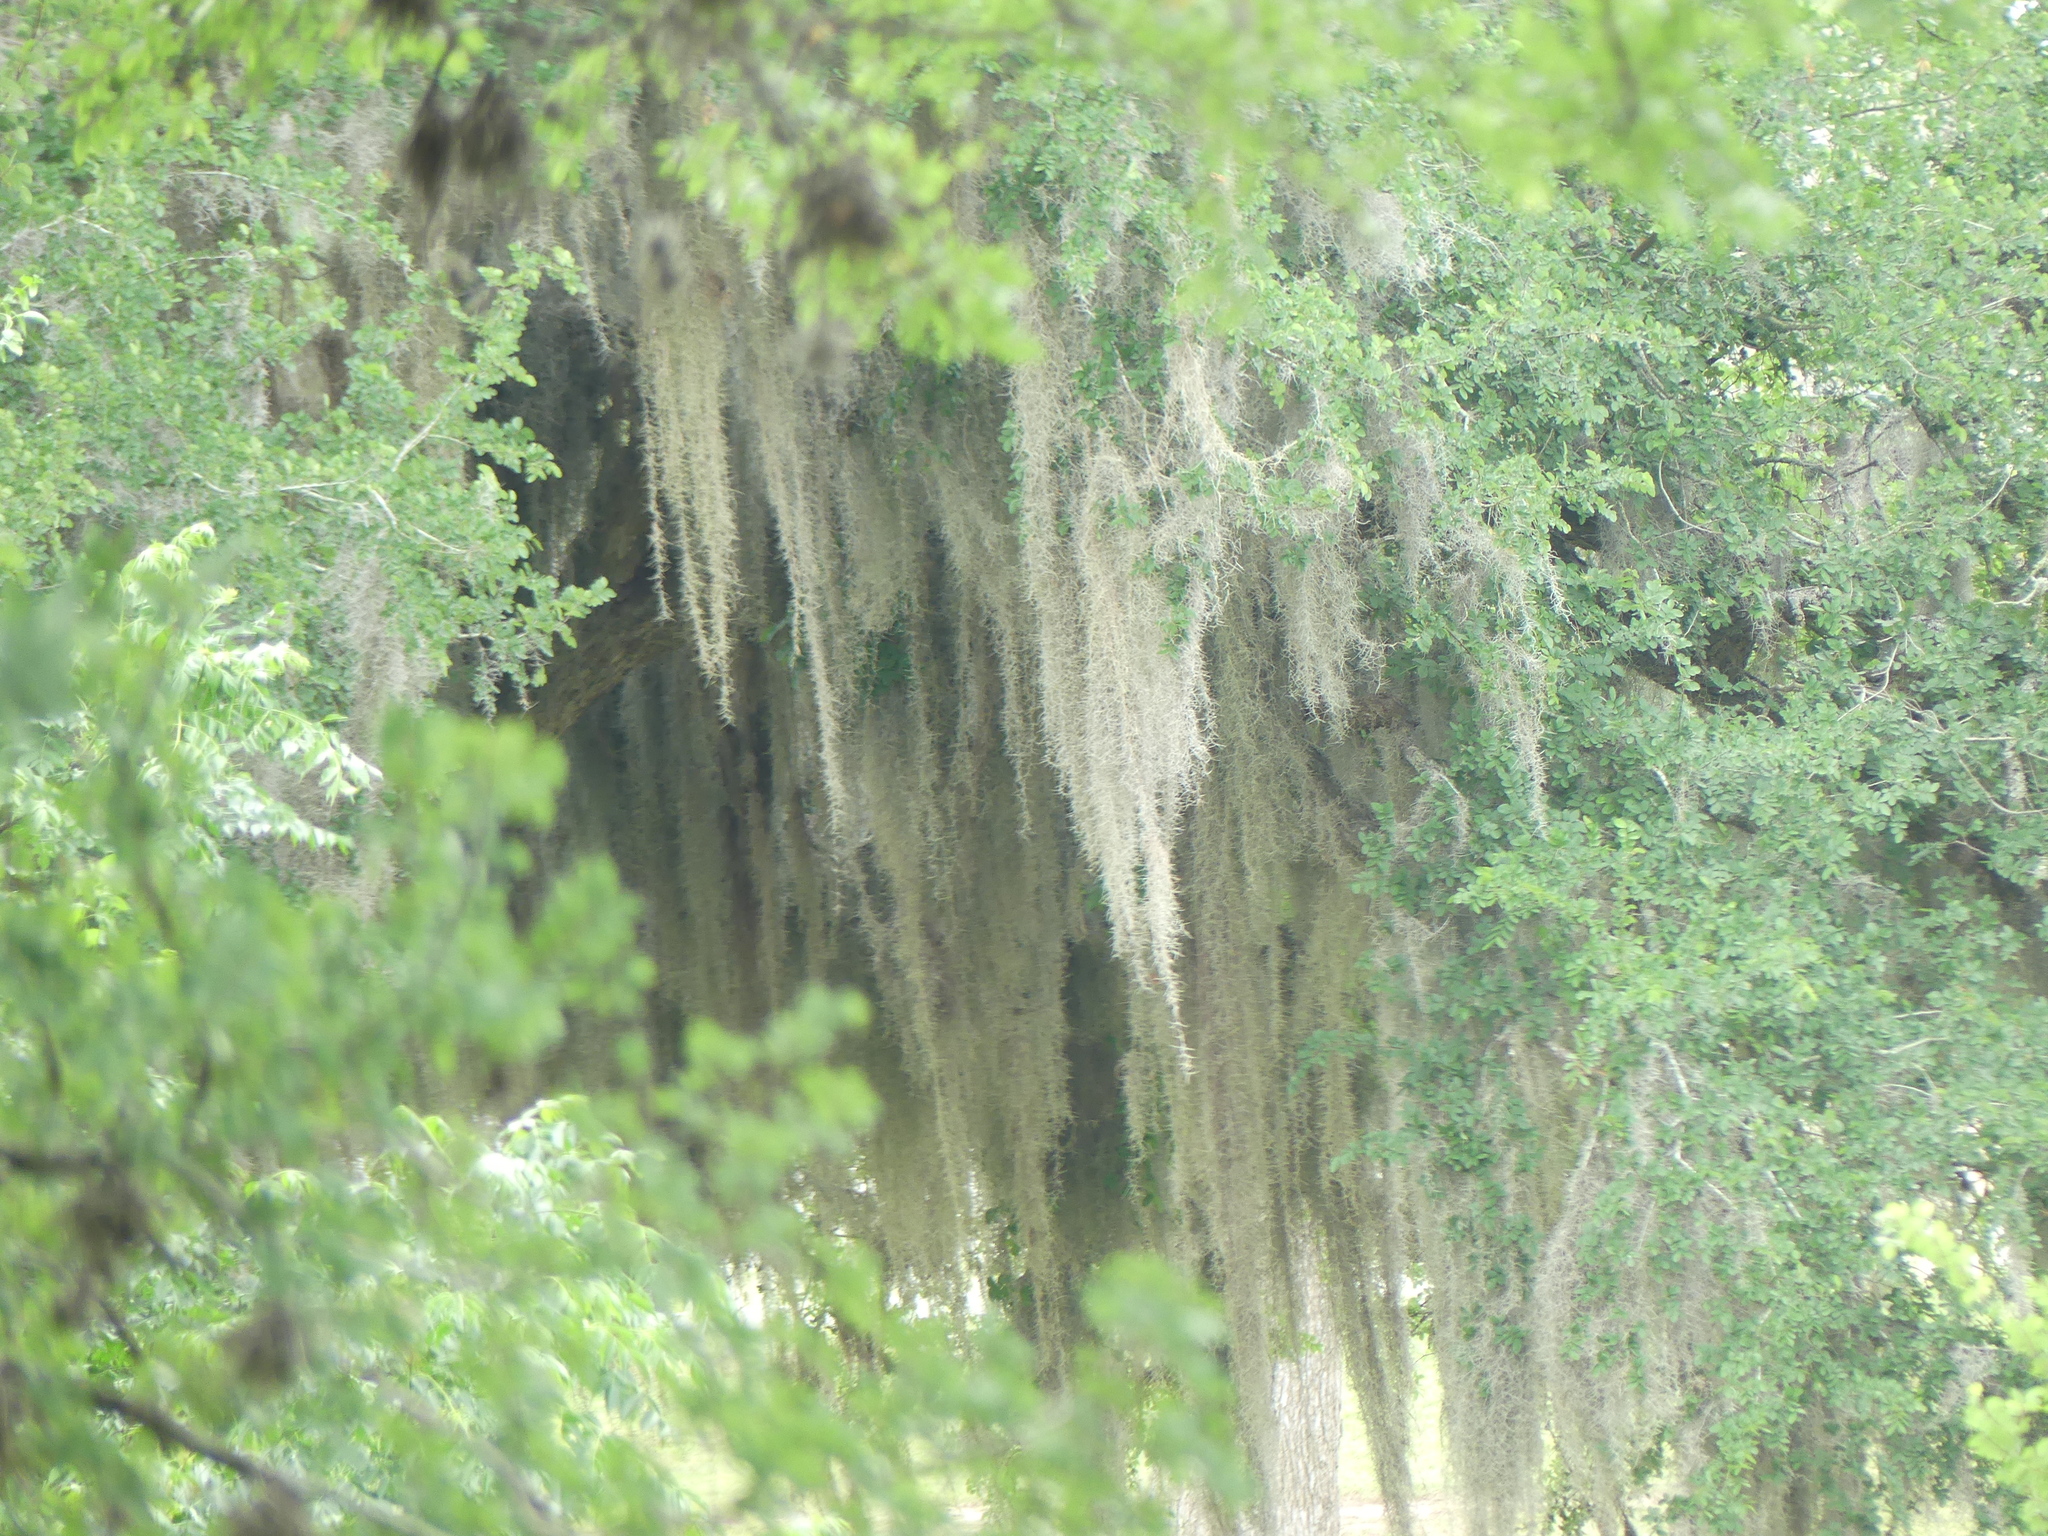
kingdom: Plantae
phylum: Tracheophyta
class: Liliopsida
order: Poales
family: Bromeliaceae
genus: Tillandsia
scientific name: Tillandsia usneoides
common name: Spanish moss
